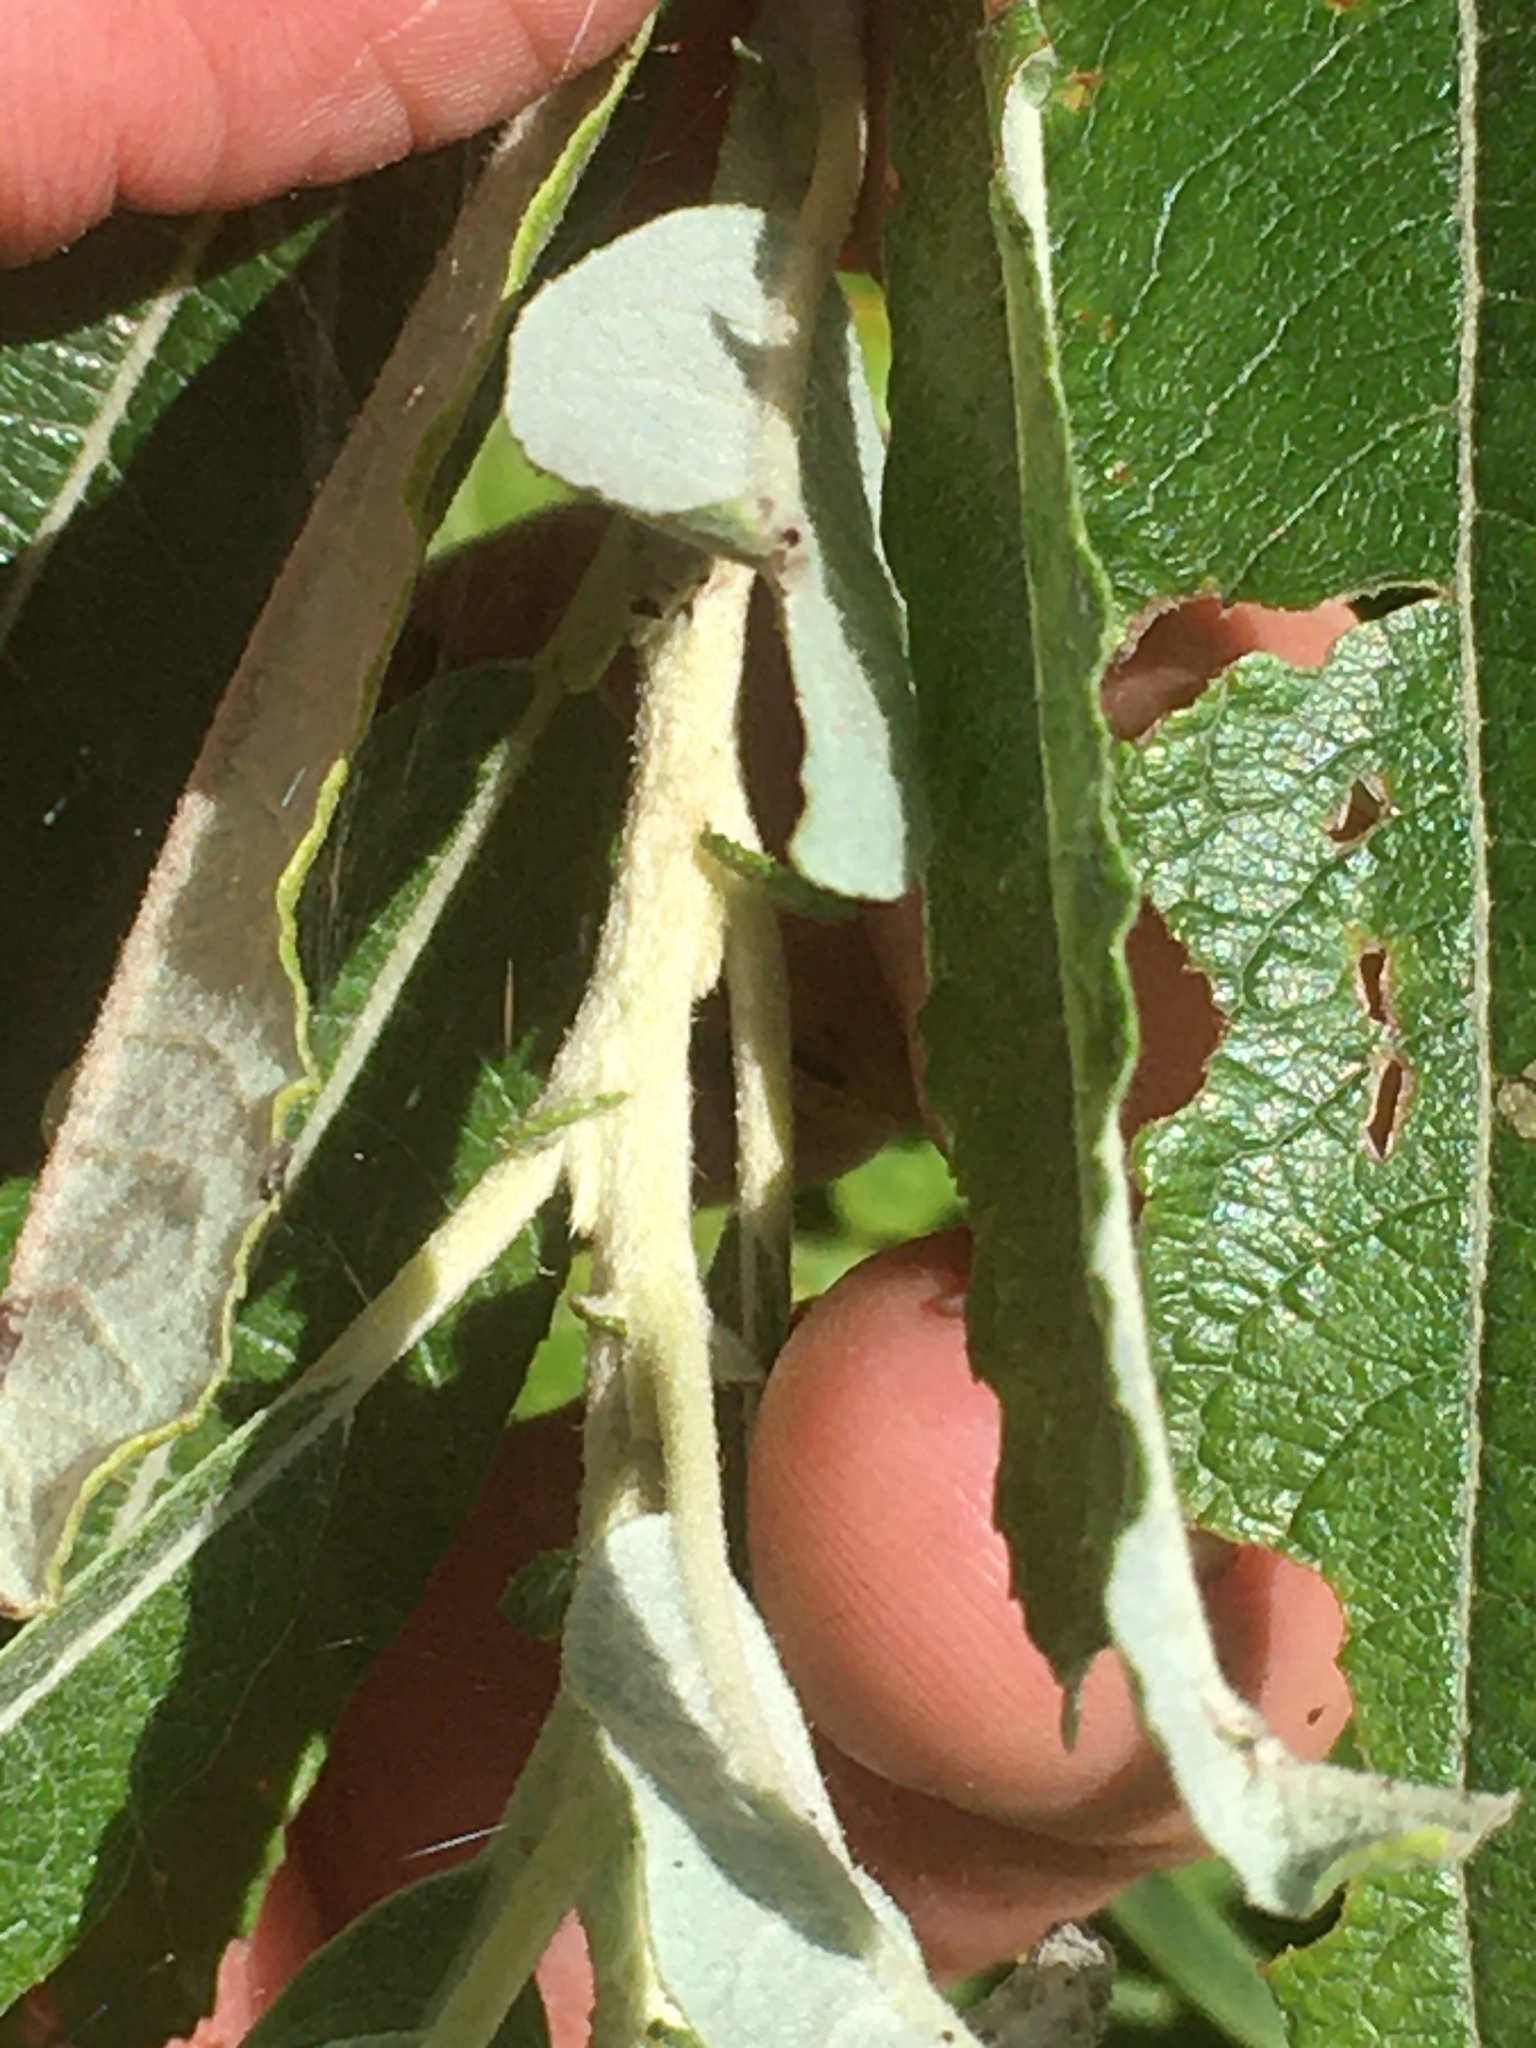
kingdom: Plantae
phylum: Tracheophyta
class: Magnoliopsida
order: Malpighiales
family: Salicaceae
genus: Salix
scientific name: Salix candida
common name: Hoary willow
